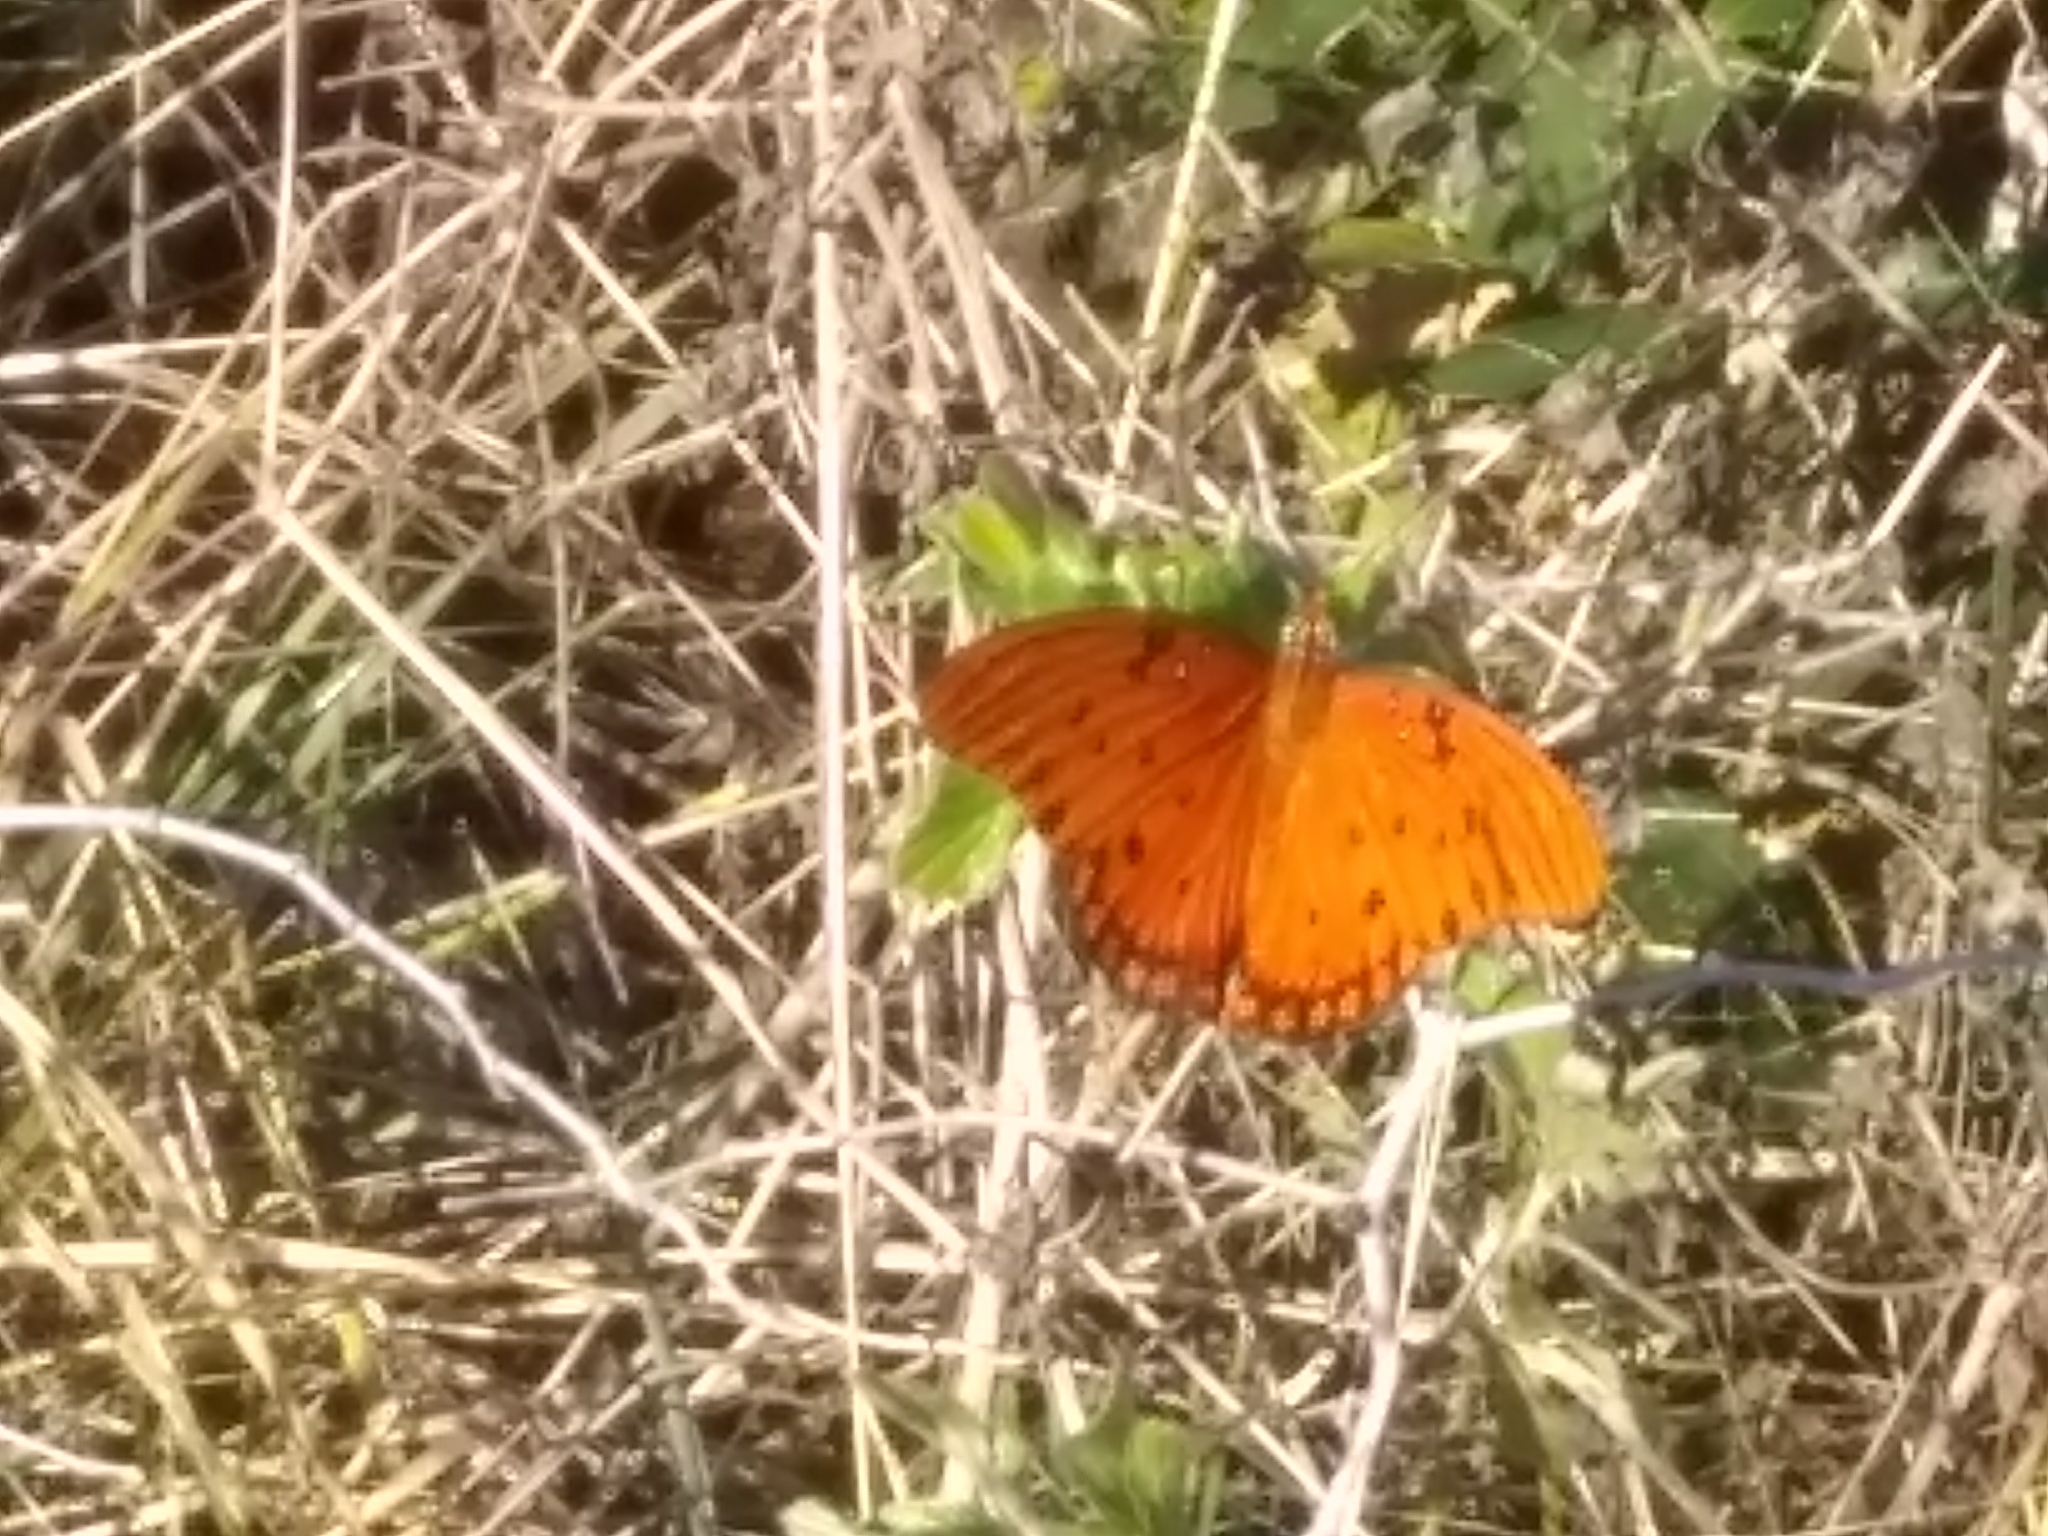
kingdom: Animalia
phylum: Arthropoda
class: Insecta
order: Lepidoptera
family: Nymphalidae
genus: Dione
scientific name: Dione vanillae
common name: Gulf fritillary
